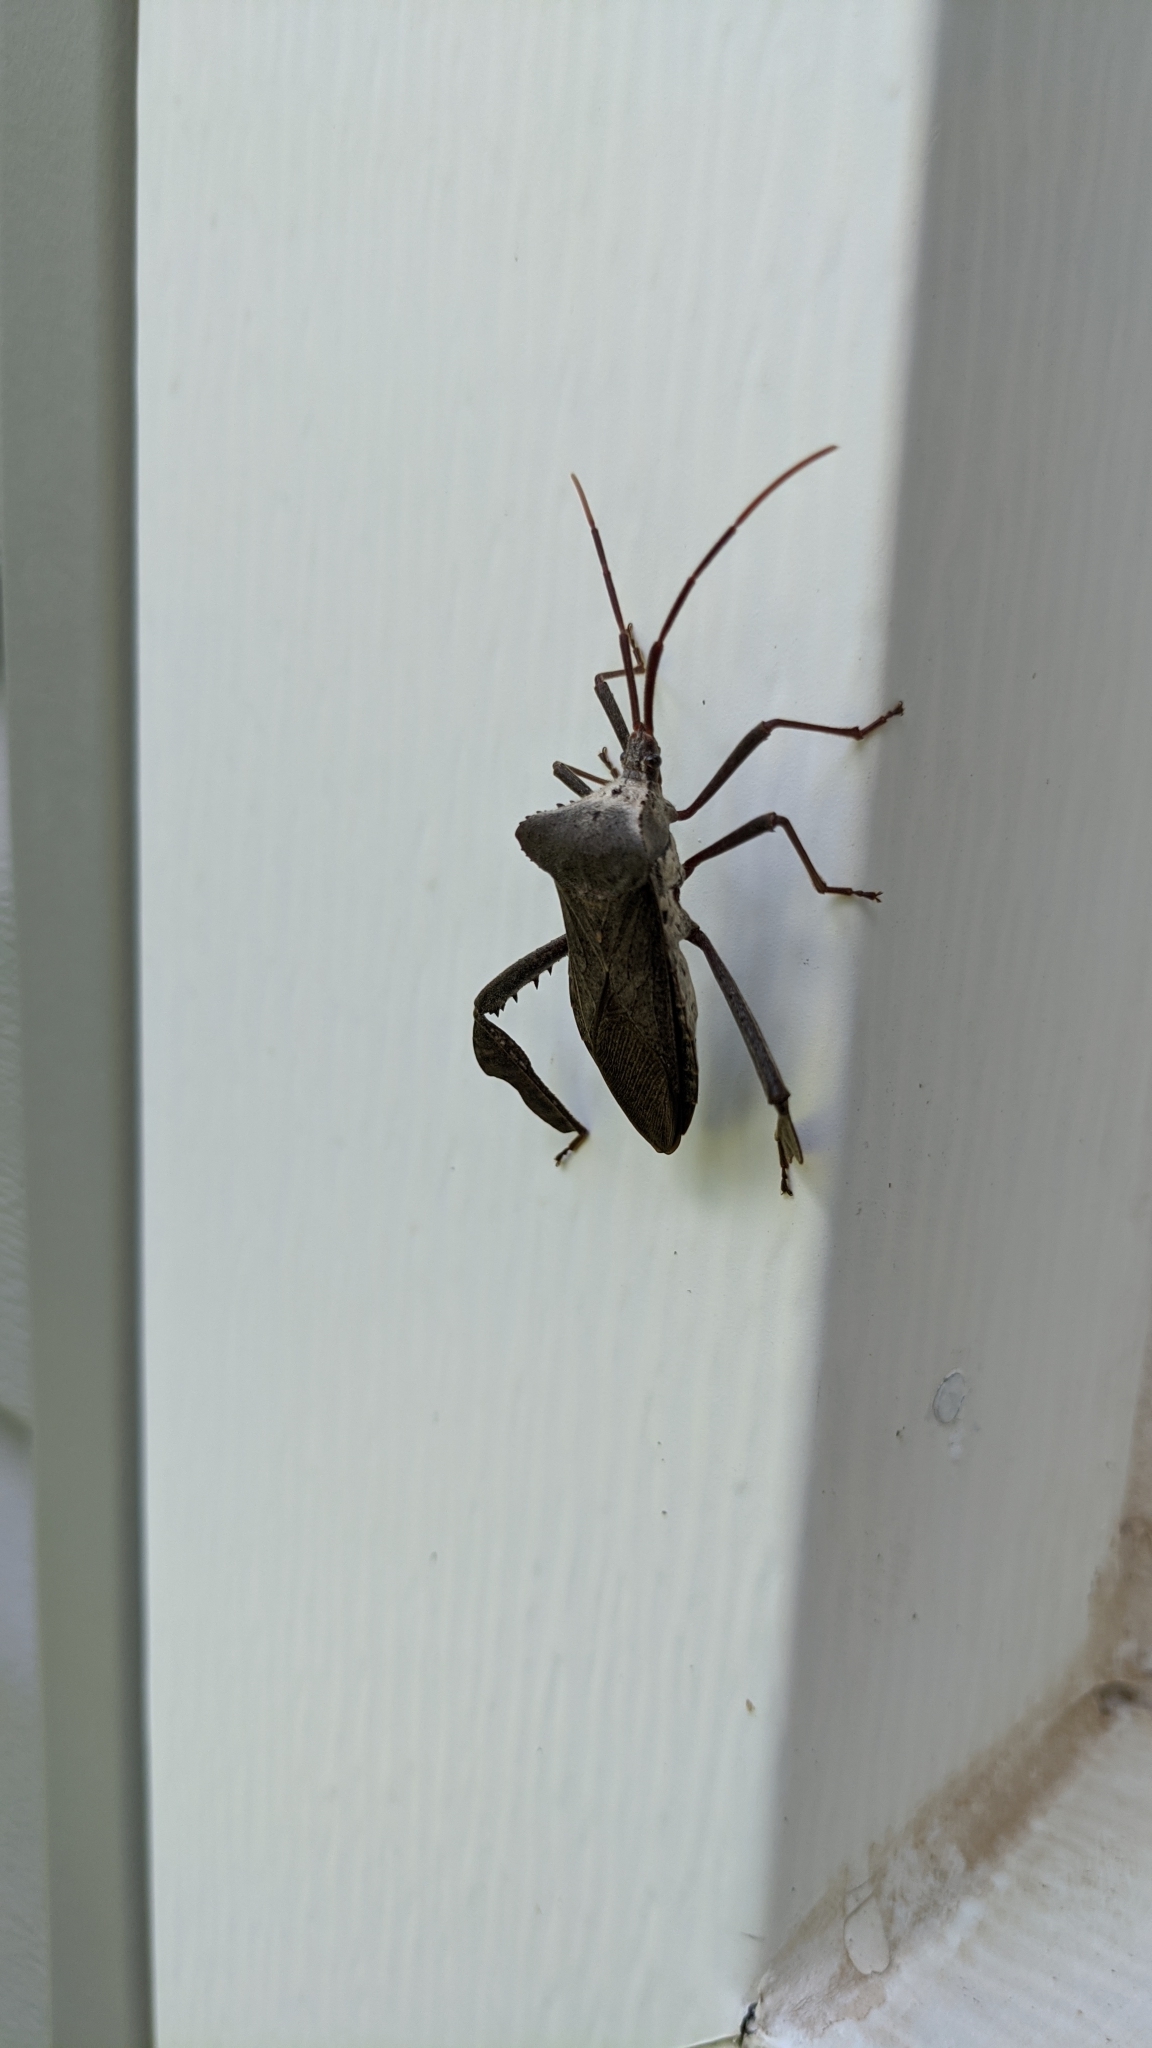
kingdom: Animalia
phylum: Arthropoda
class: Insecta
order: Hemiptera
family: Coreidae
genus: Acanthocephala
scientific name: Acanthocephala declivis
